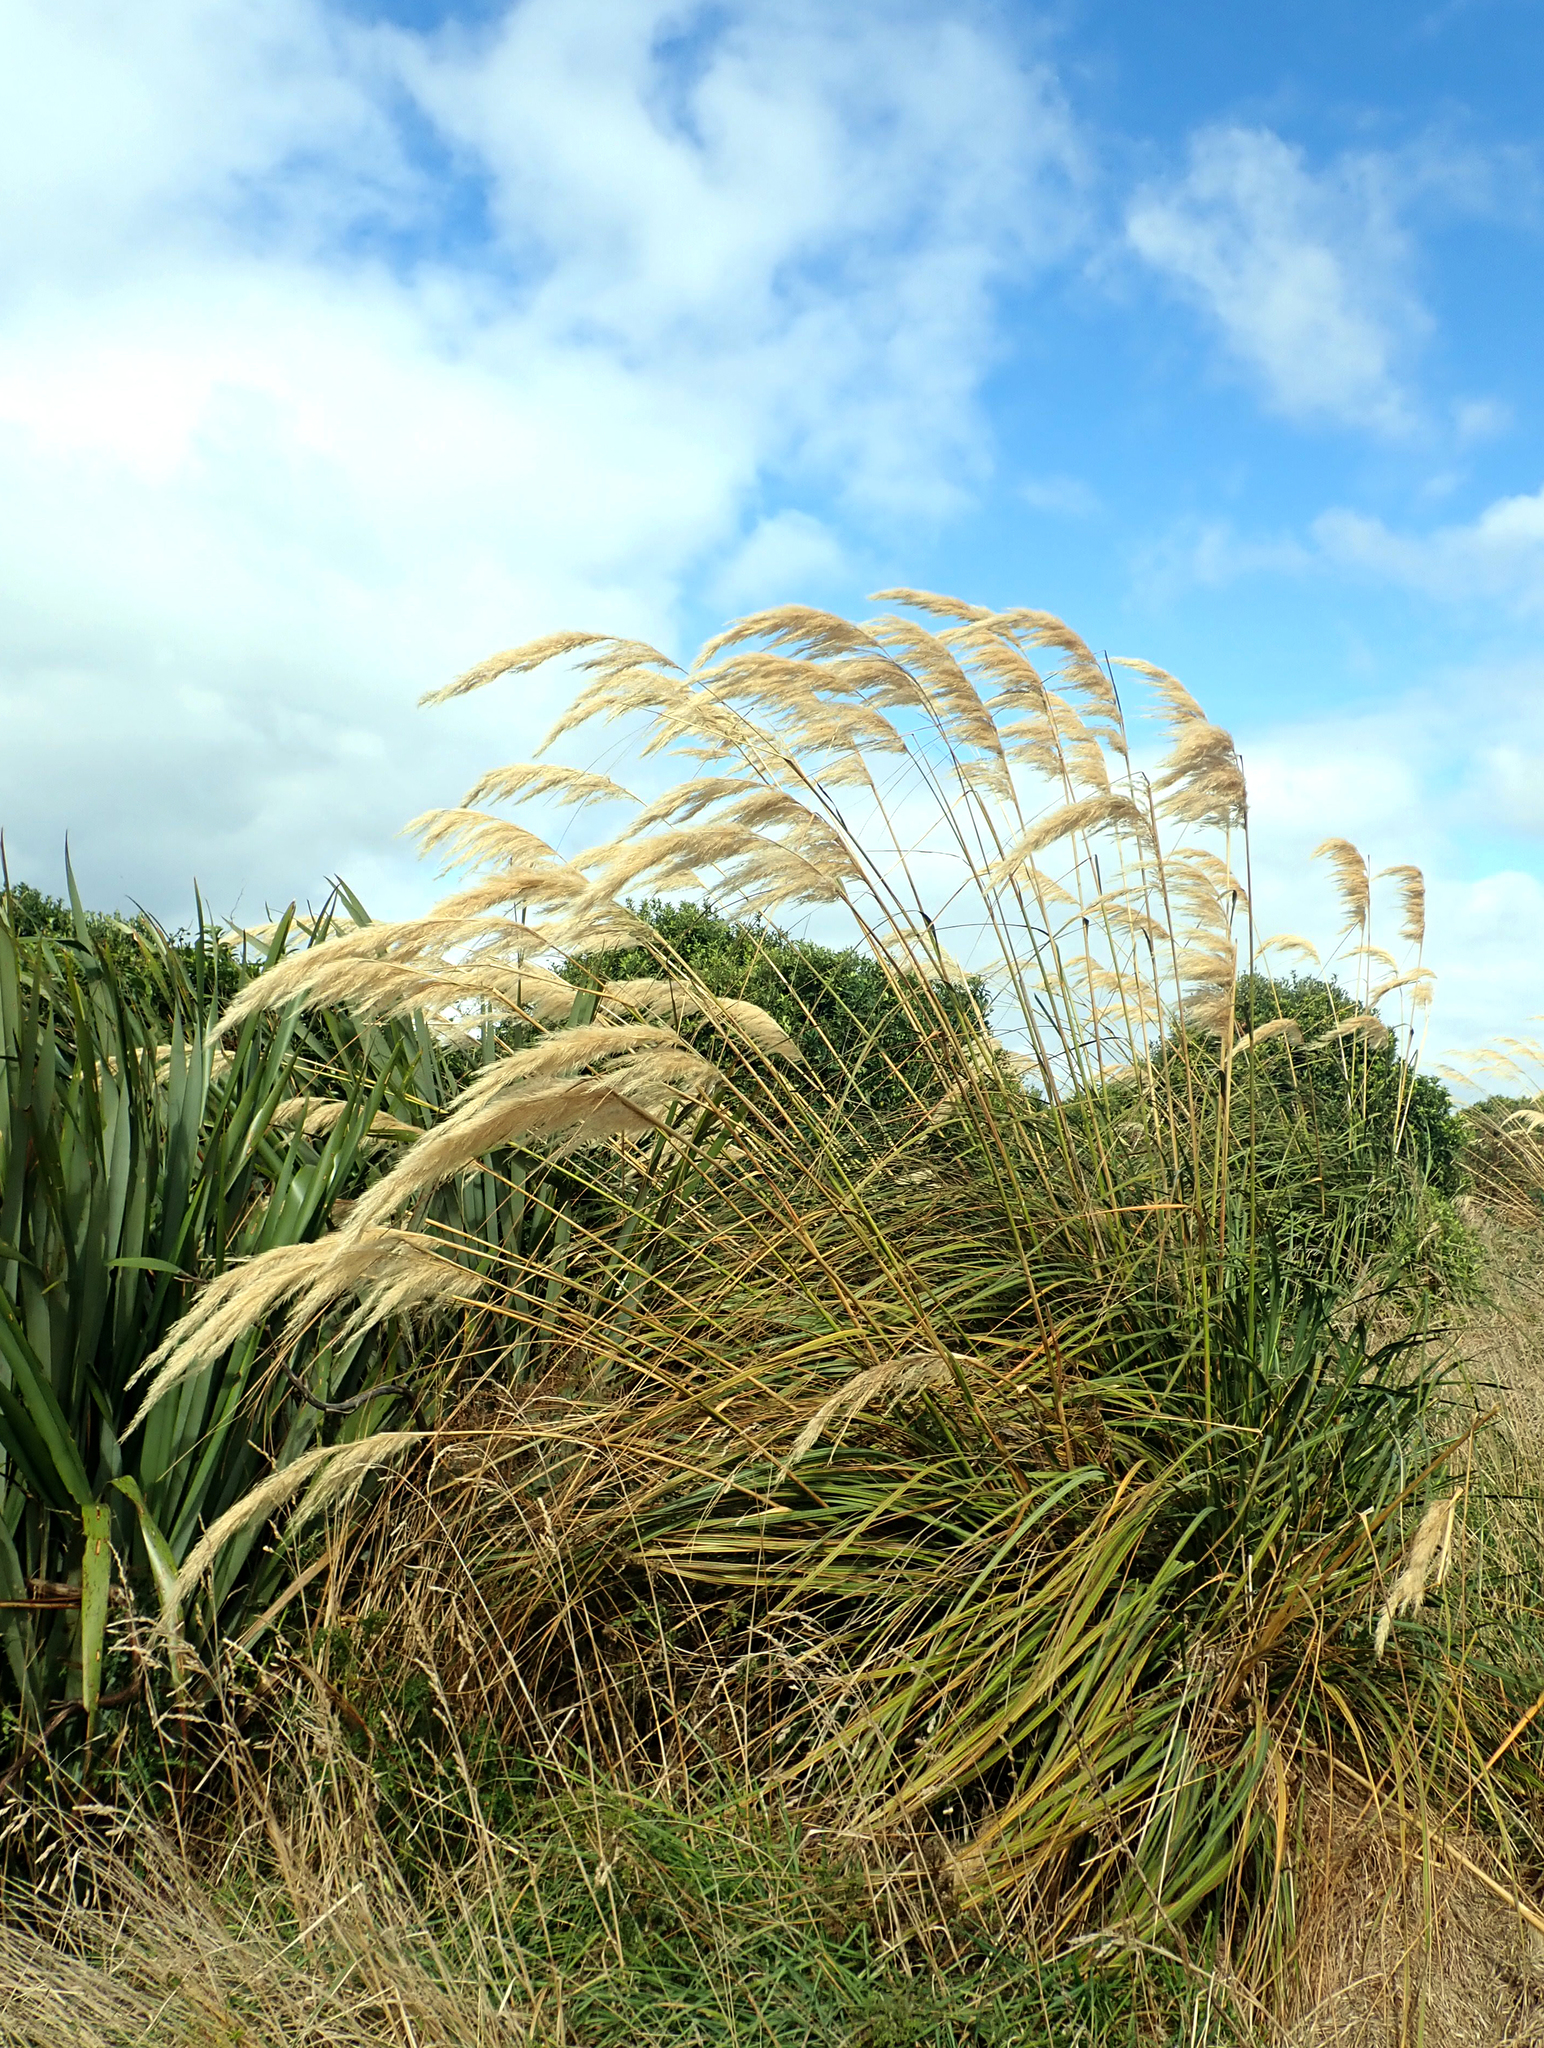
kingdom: Plantae
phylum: Tracheophyta
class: Liliopsida
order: Poales
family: Poaceae
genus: Austroderia
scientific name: Austroderia richardii
